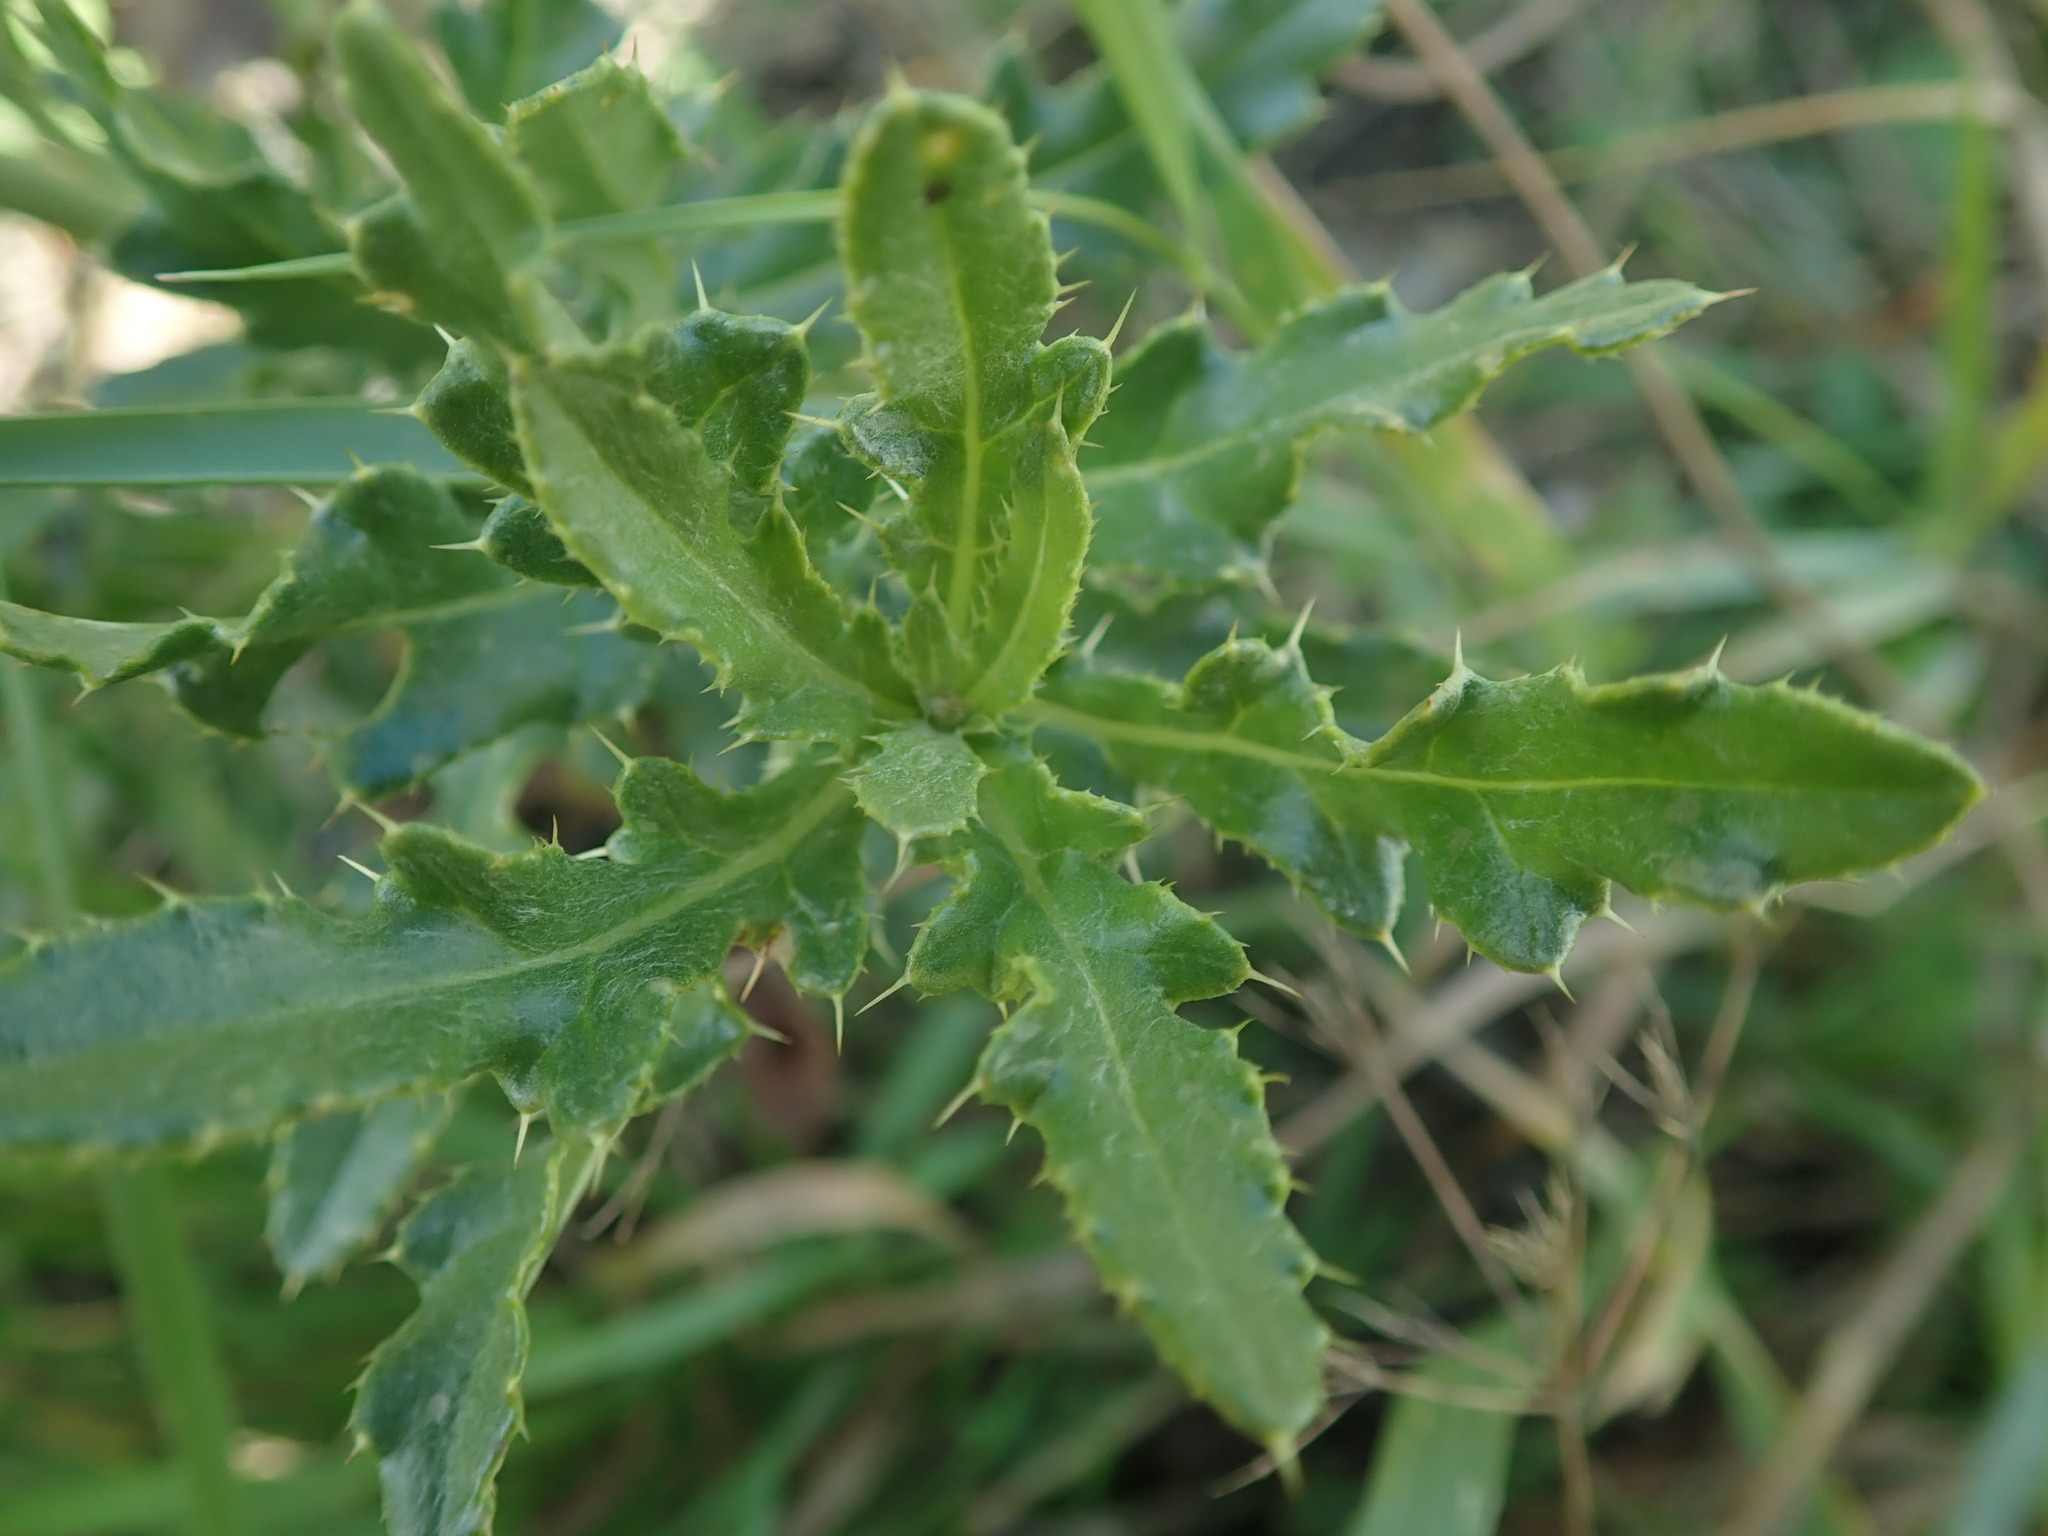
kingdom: Plantae
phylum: Tracheophyta
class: Magnoliopsida
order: Asterales
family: Asteraceae
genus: Cirsium
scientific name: Cirsium arvense
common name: Creeping thistle
